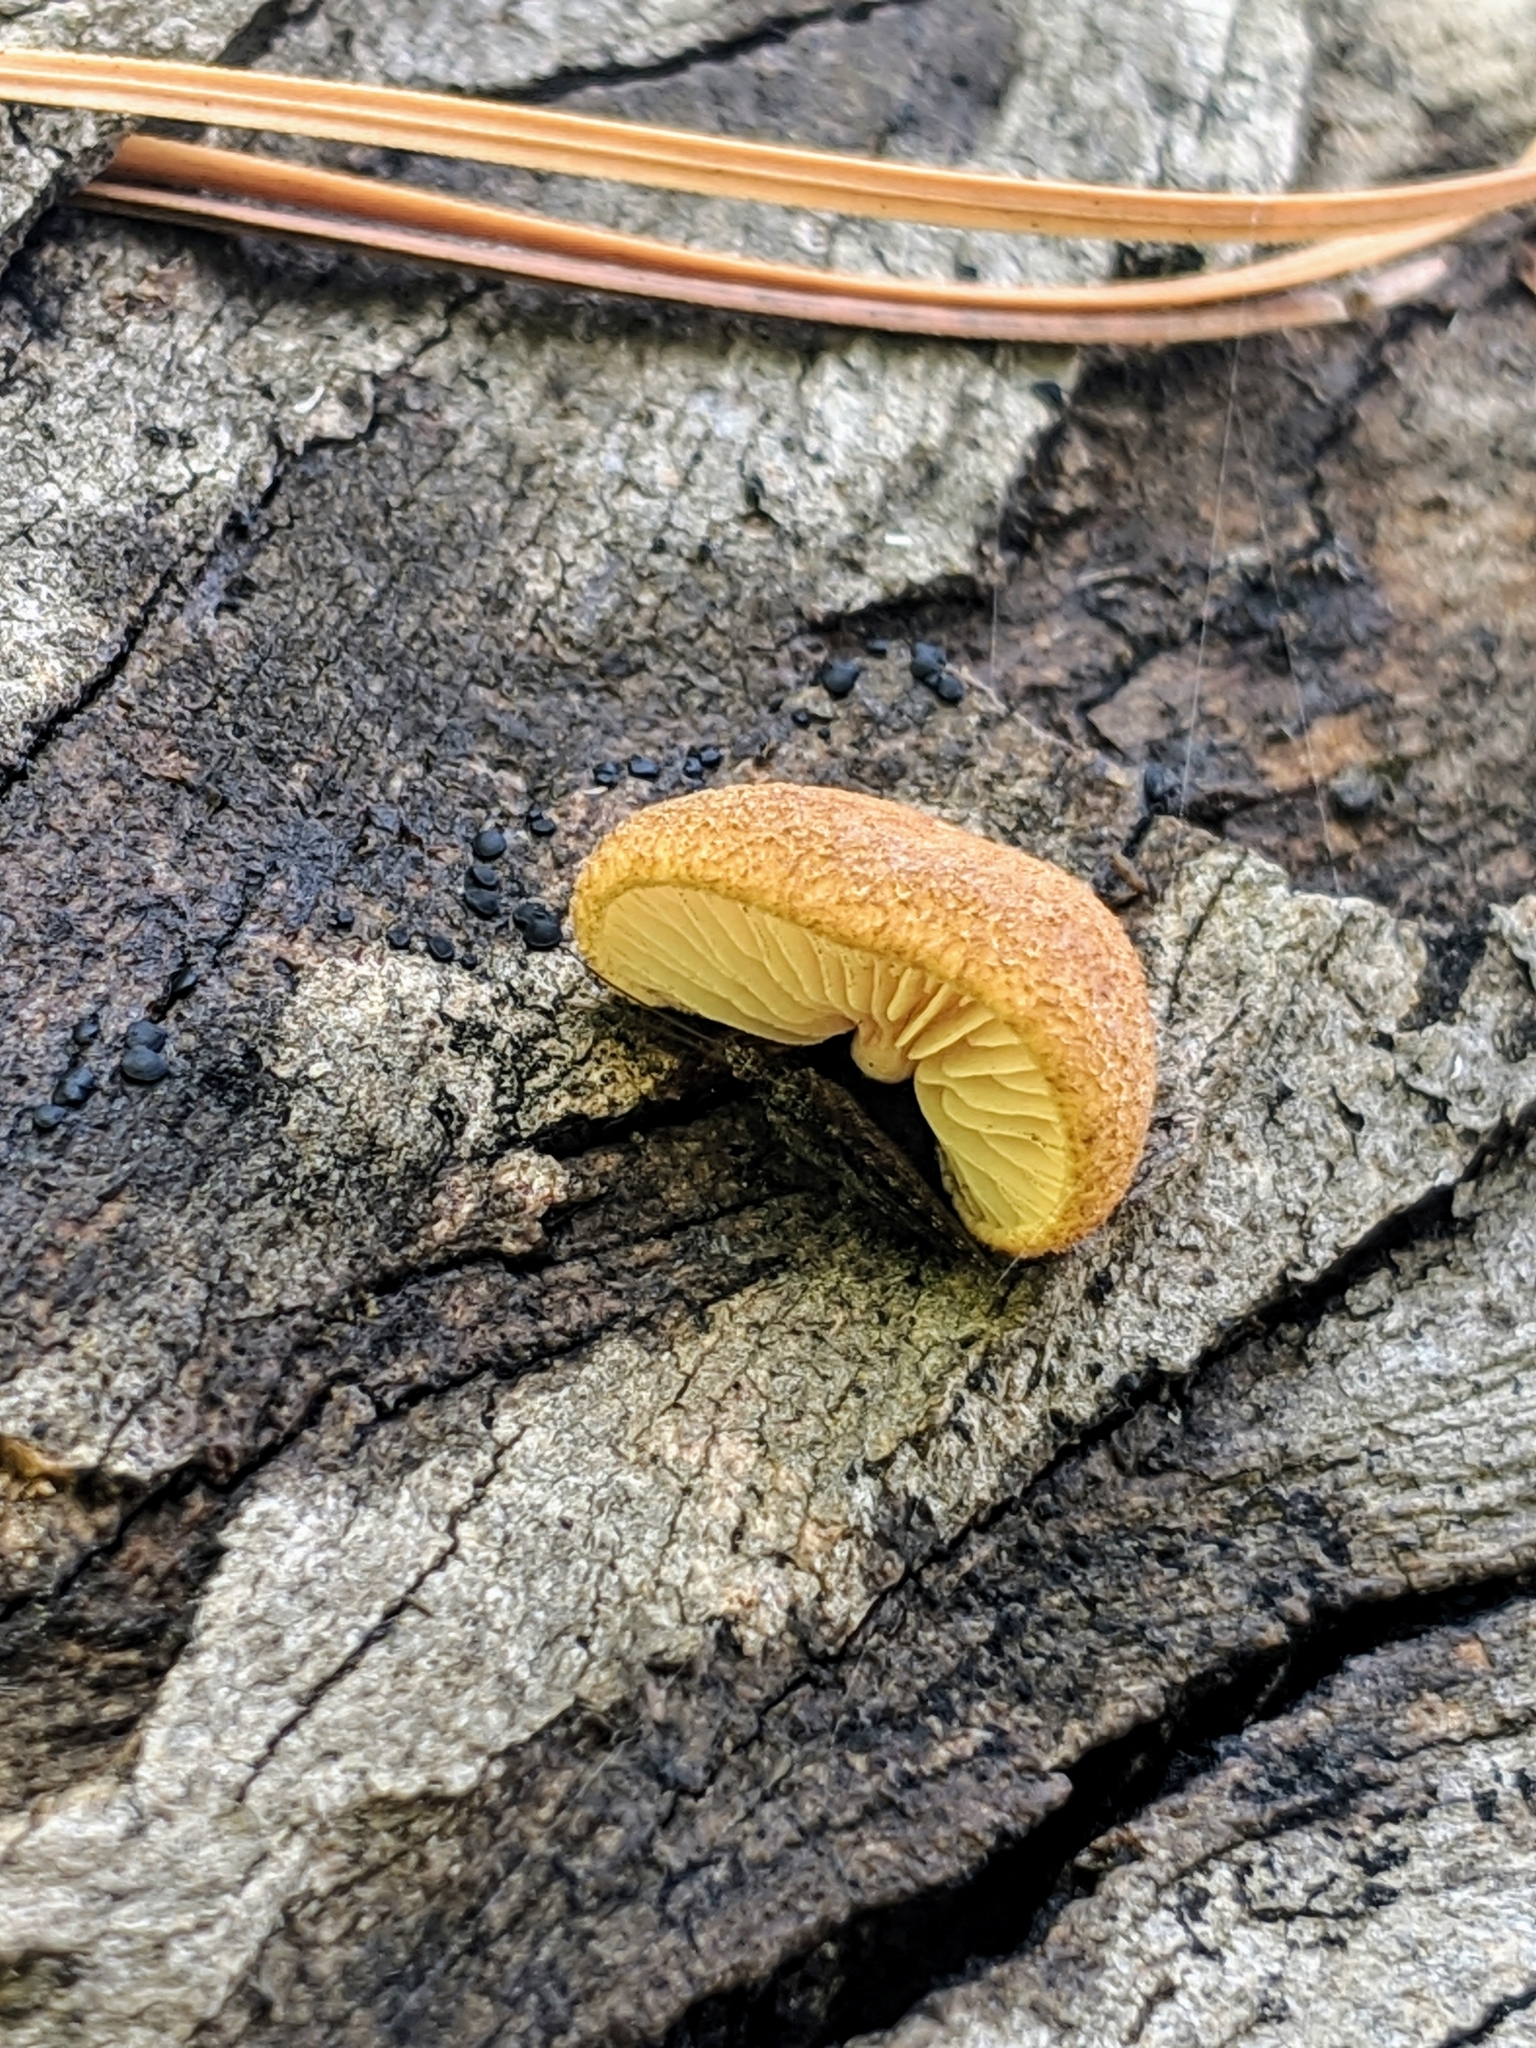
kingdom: Fungi
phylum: Basidiomycota
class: Agaricomycetes
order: Agaricales
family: Crepidotaceae
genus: Crepidotus
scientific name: Crepidotus crocophyllus
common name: Saffron oysterling
